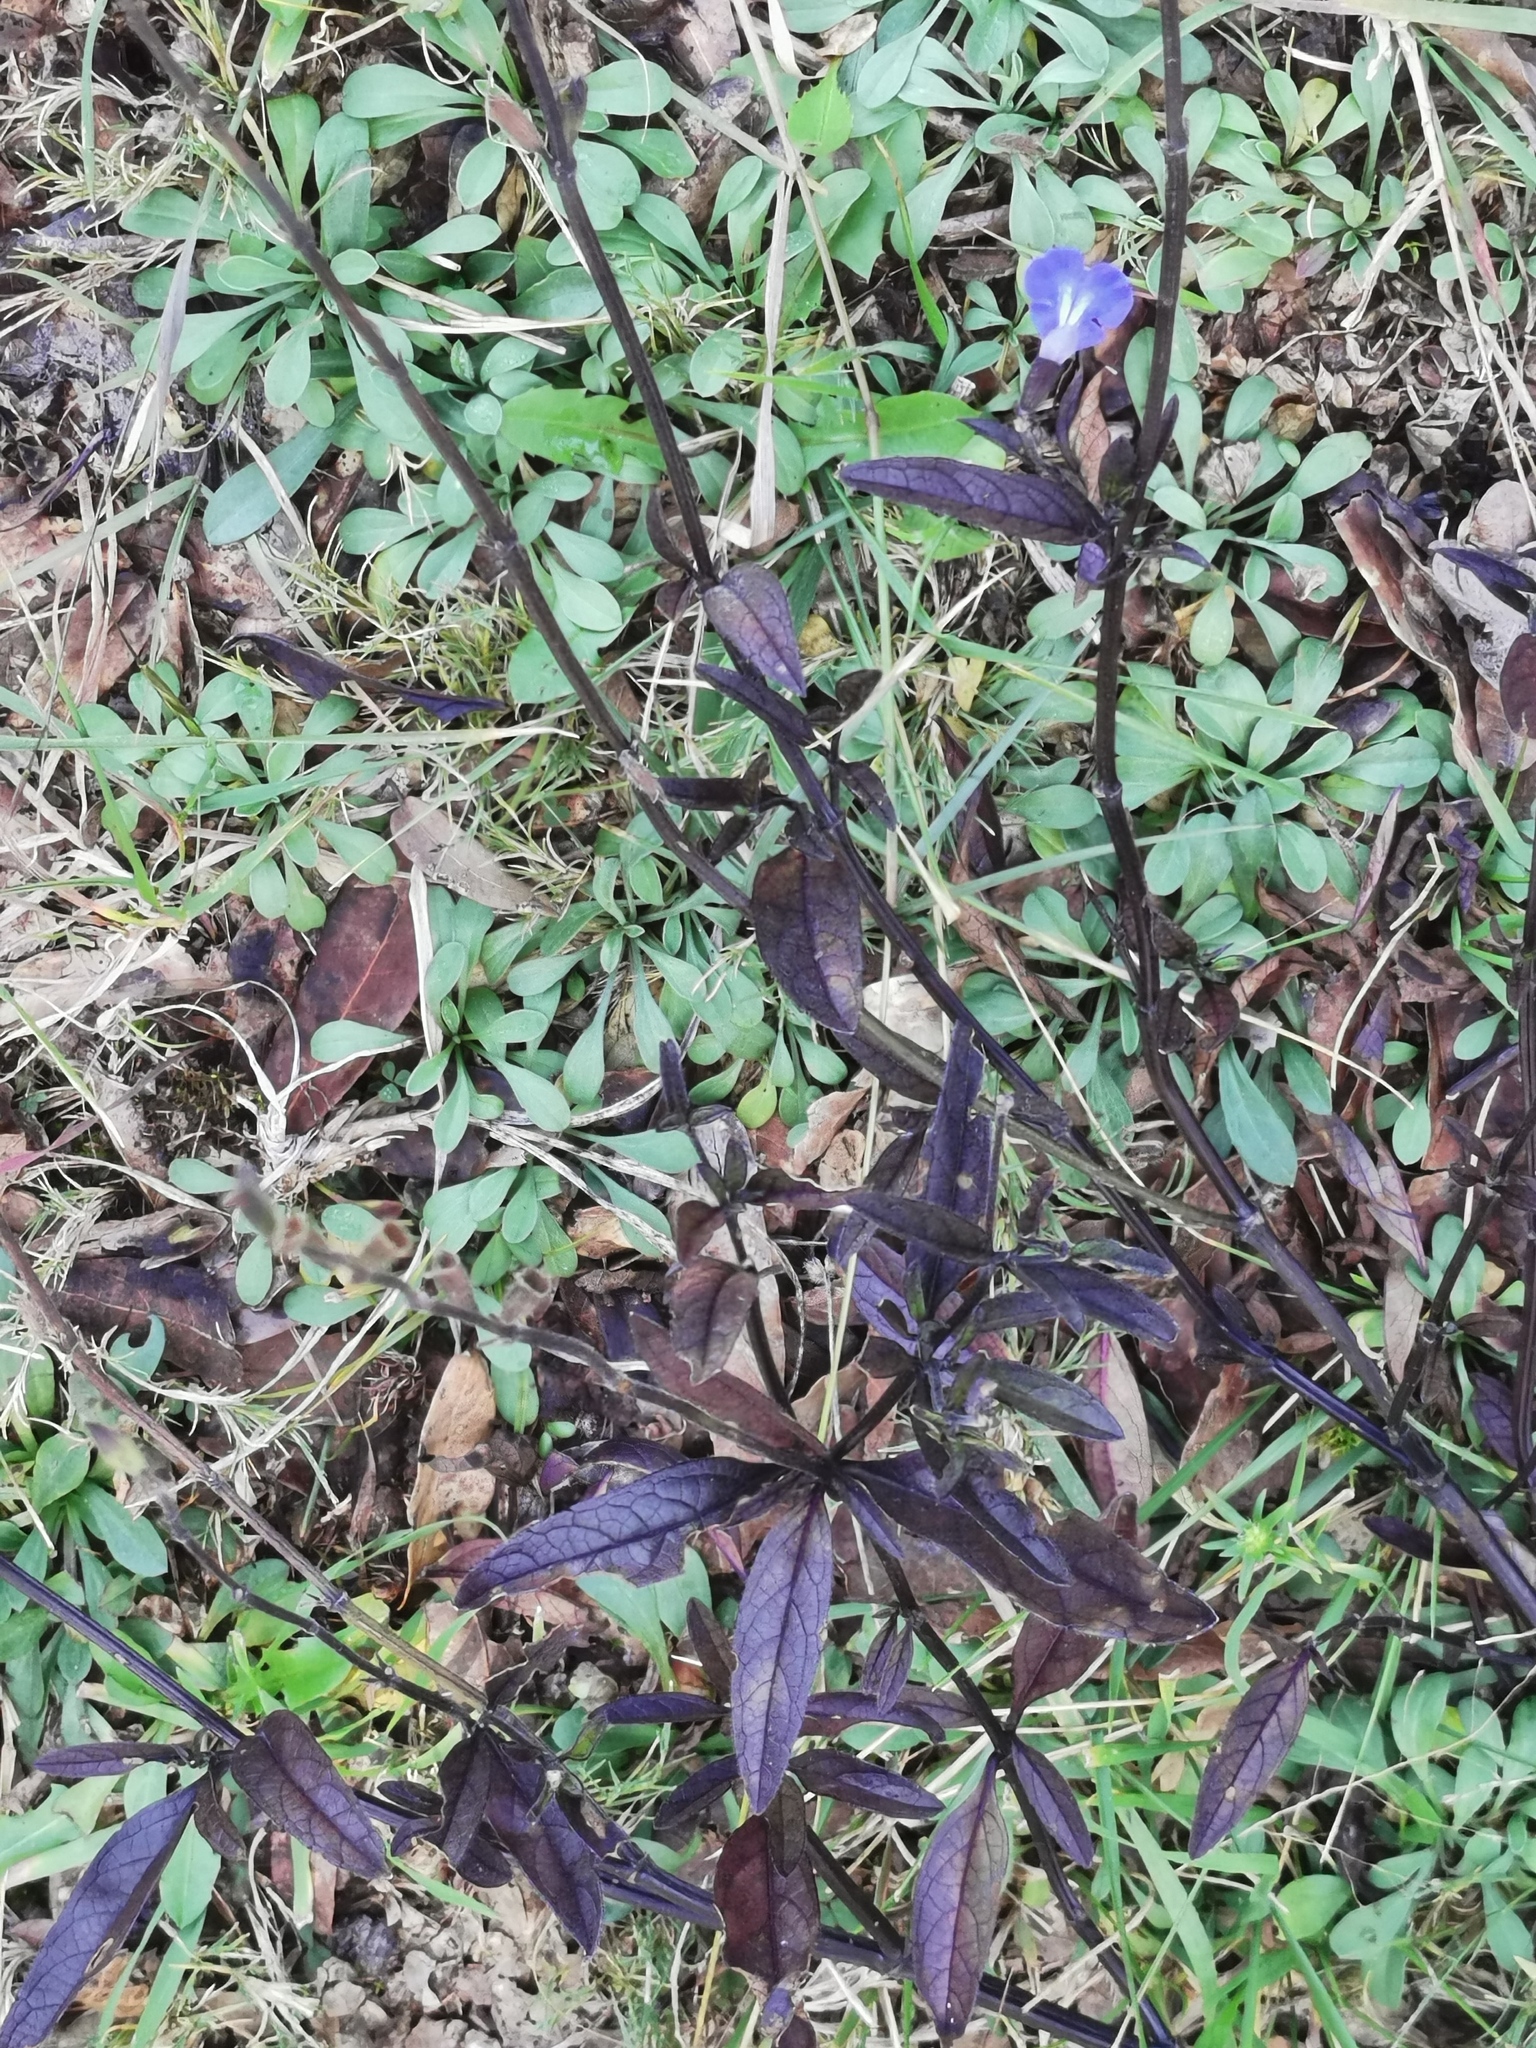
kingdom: Plantae
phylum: Tracheophyta
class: Magnoliopsida
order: Lamiales
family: Lamiaceae
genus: Salvia
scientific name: Salvia jaimehintoniana
